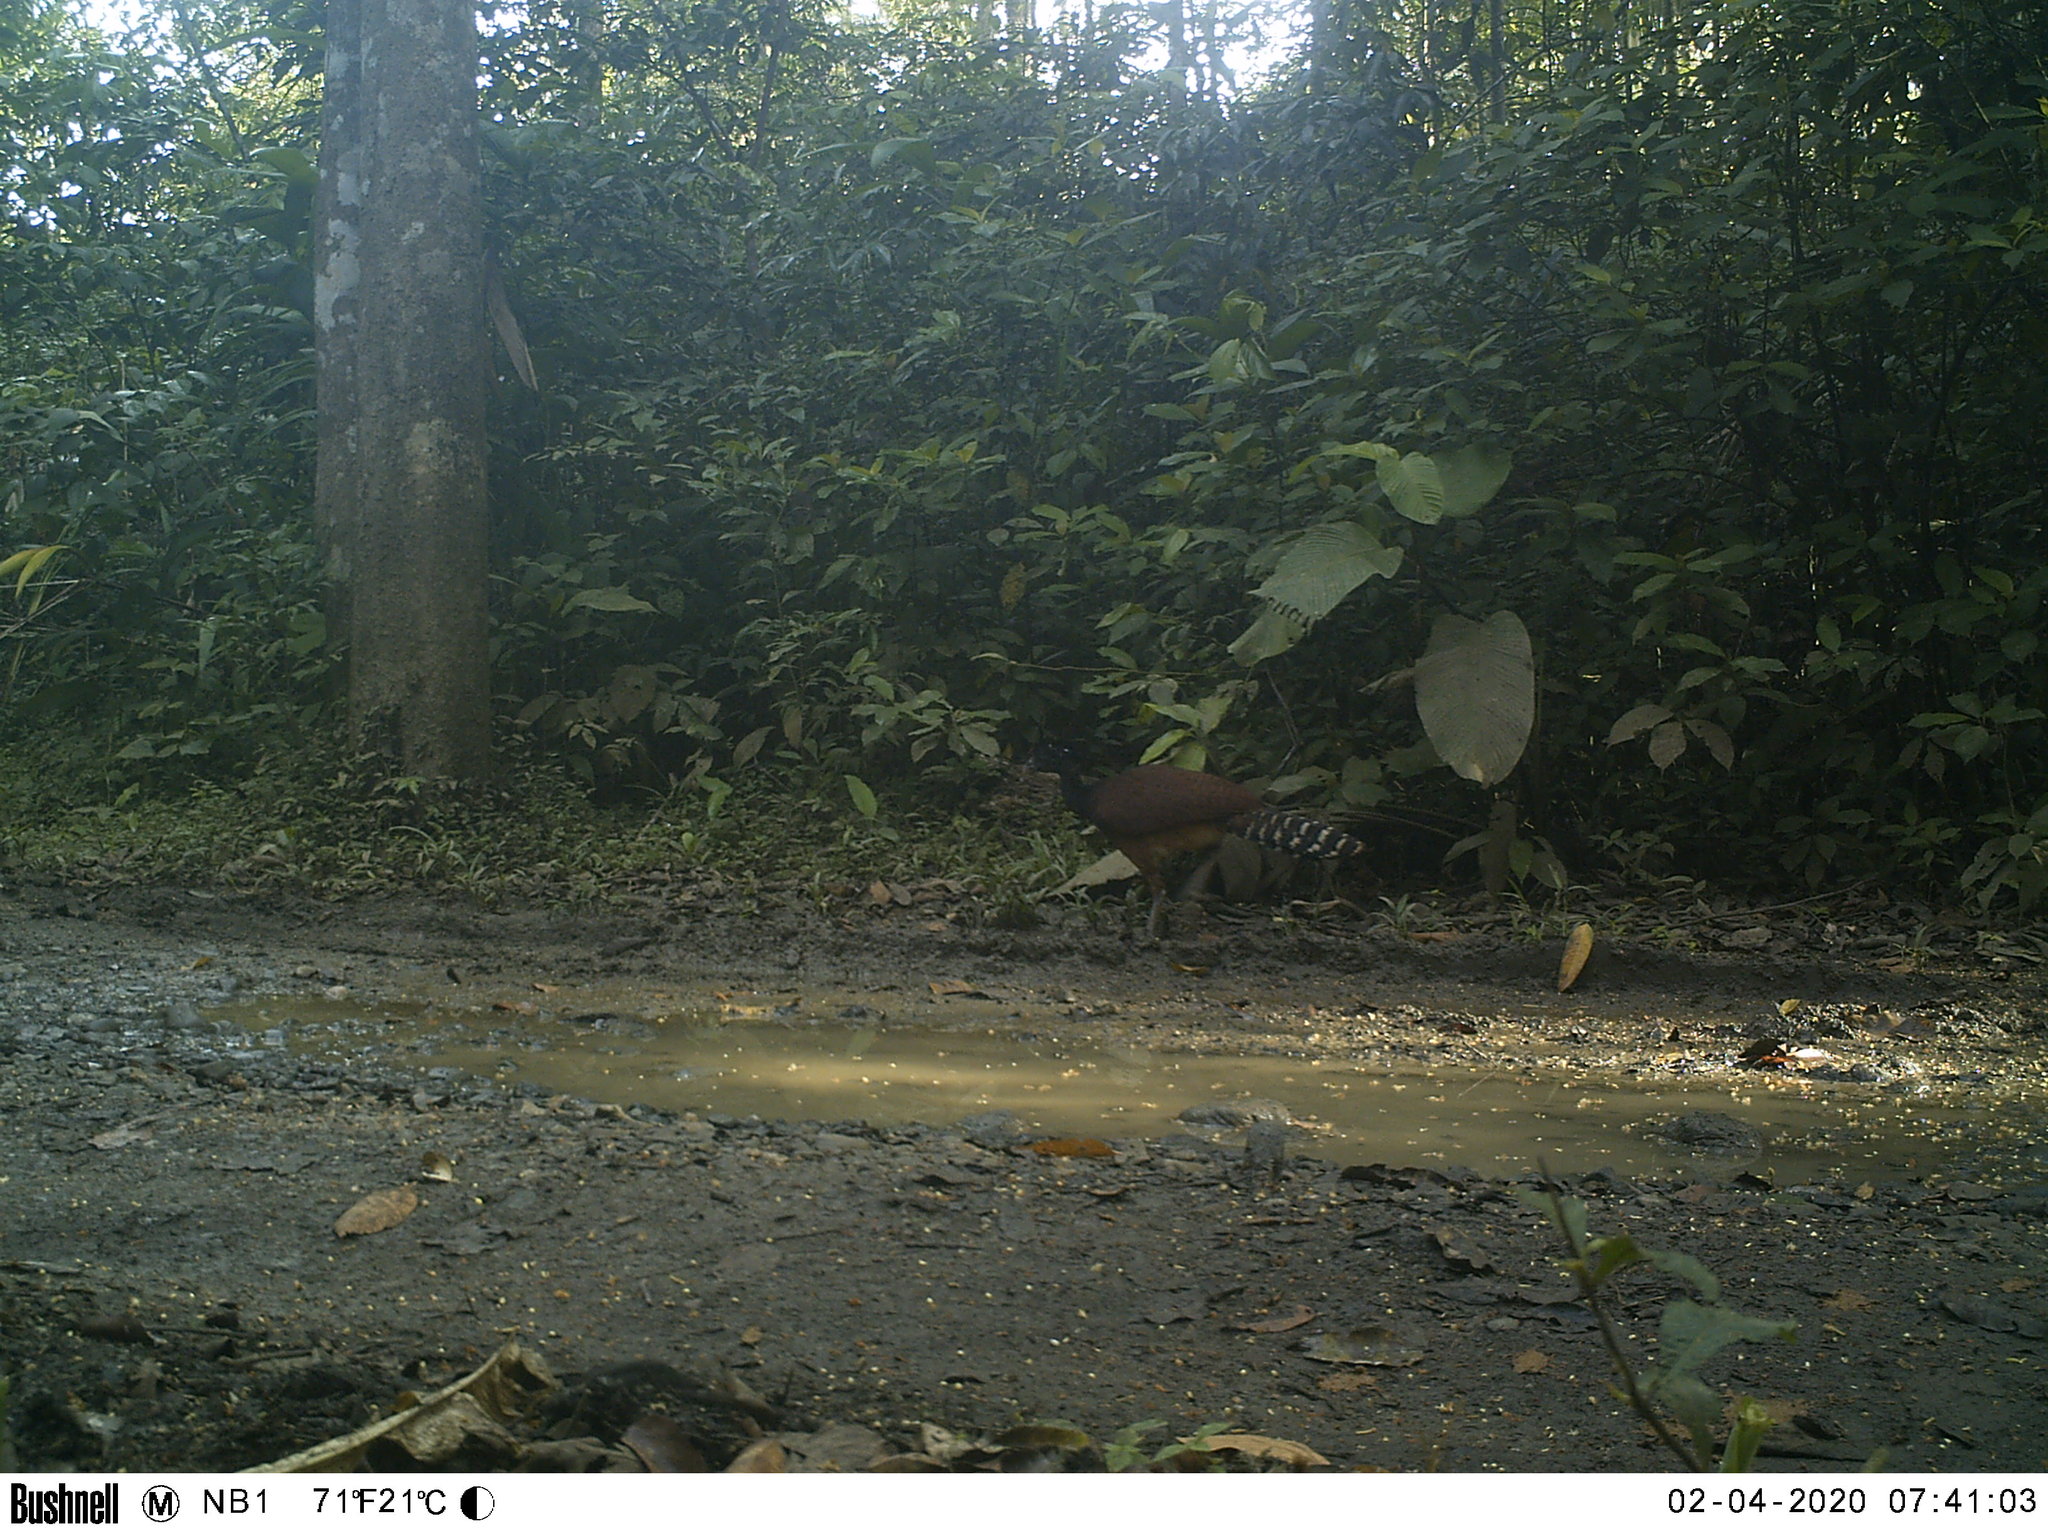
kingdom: Animalia
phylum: Chordata
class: Aves
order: Galliformes
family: Cracidae
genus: Crax
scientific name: Crax rubra
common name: Great curassow
